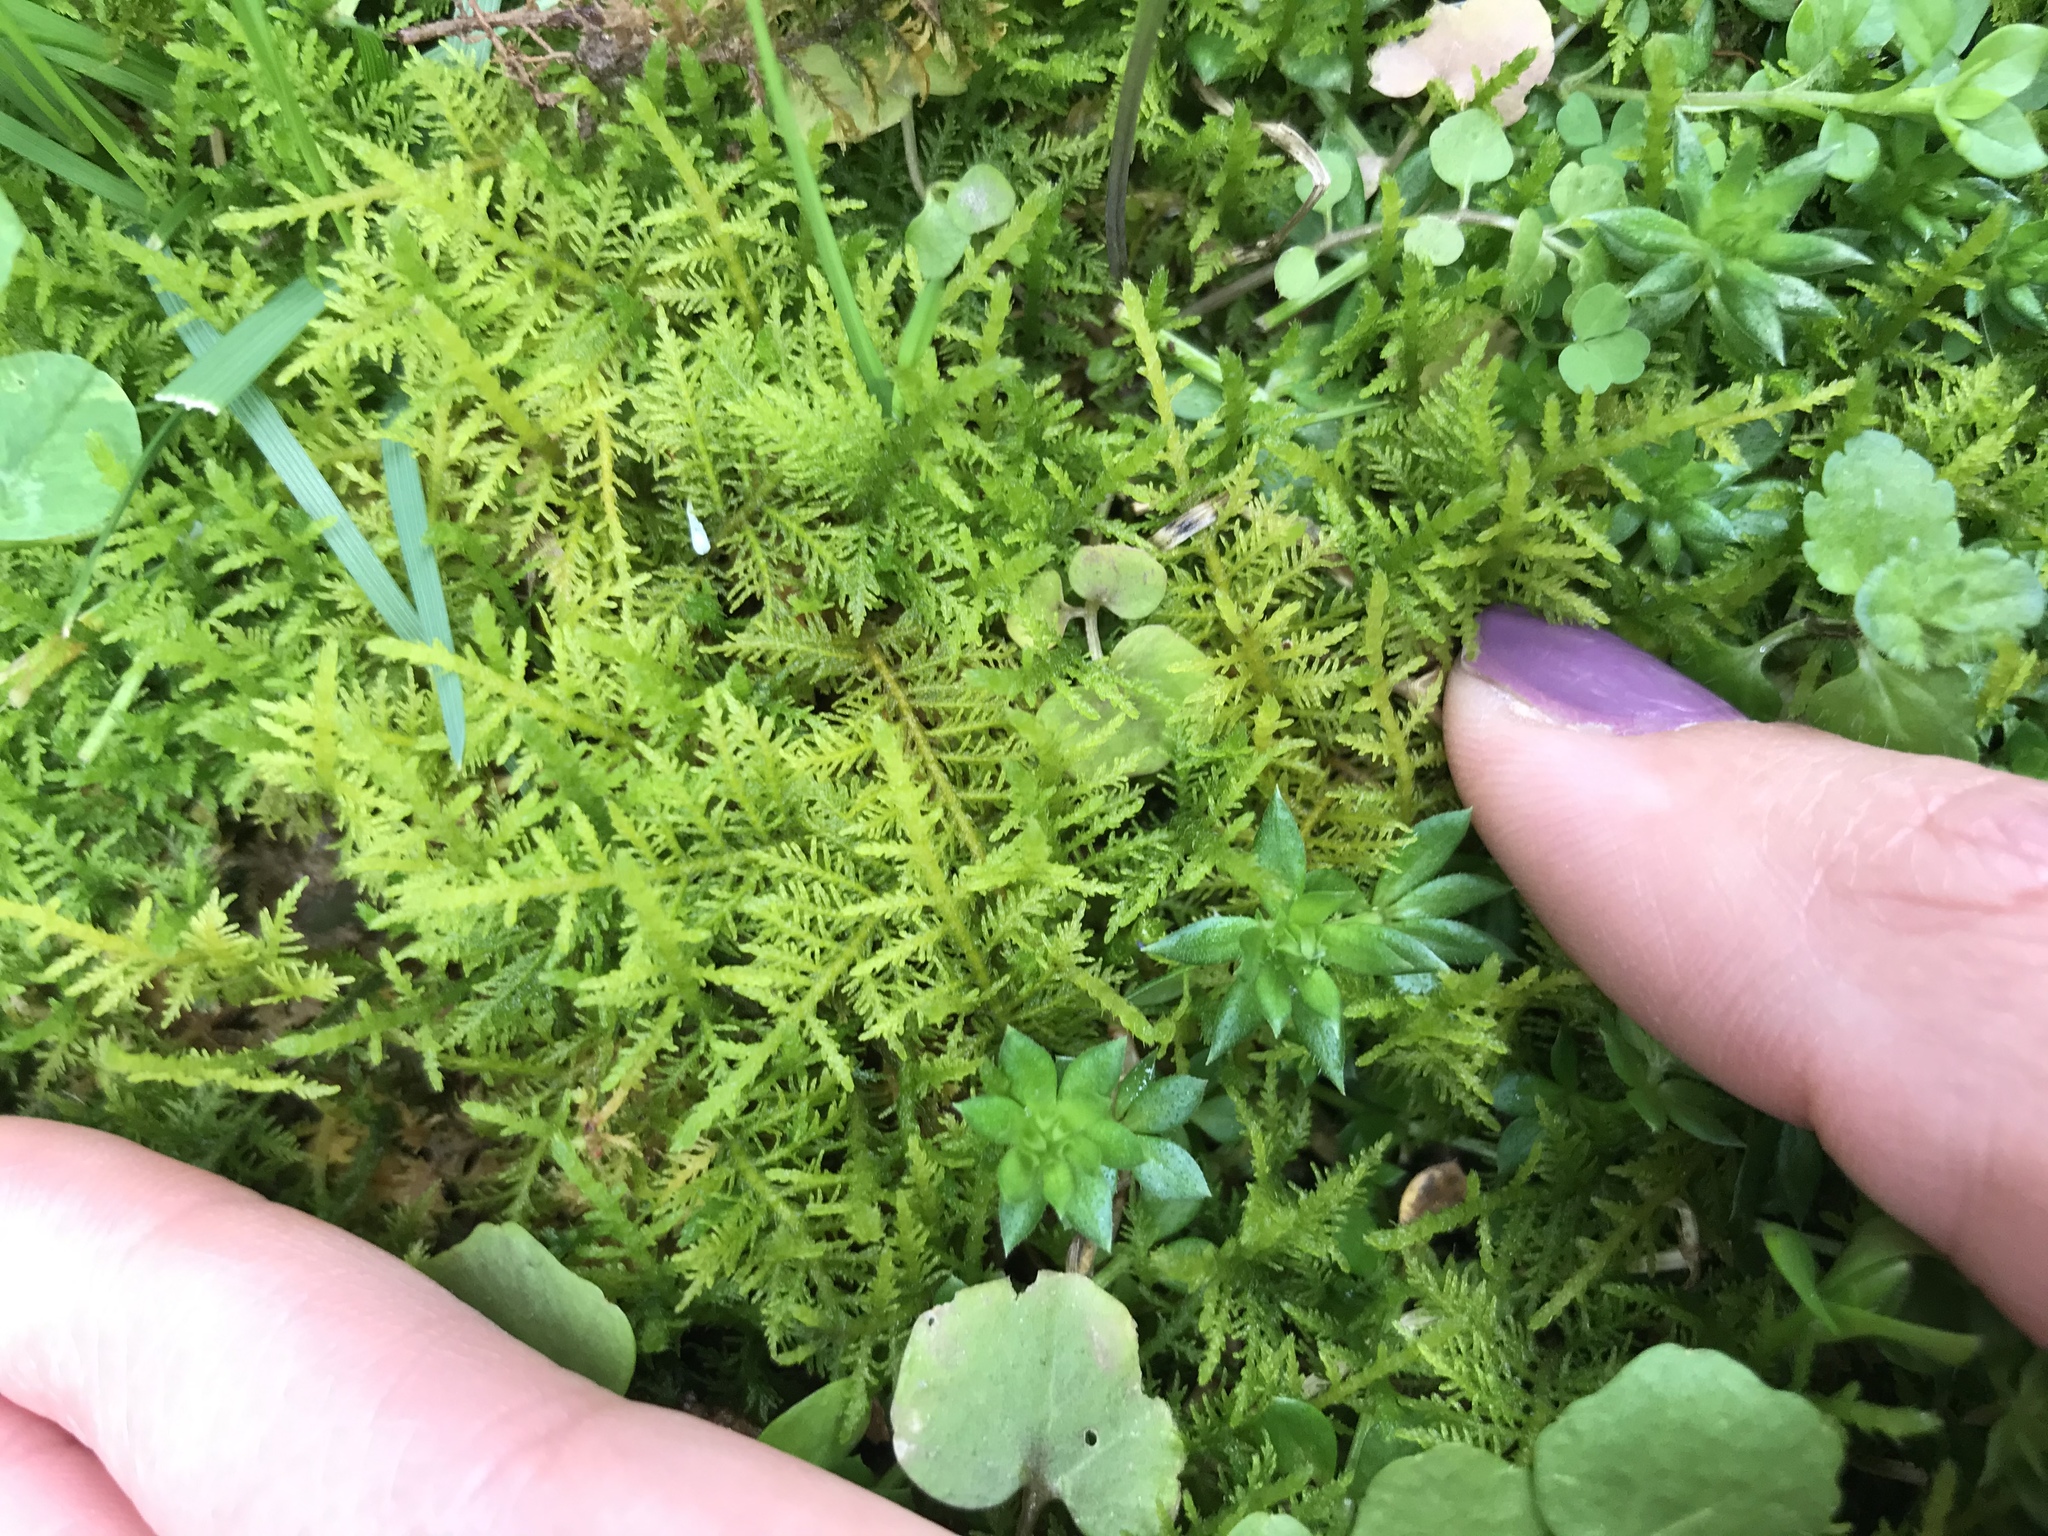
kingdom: Plantae
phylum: Bryophyta
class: Bryopsida
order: Hypnales
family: Thuidiaceae
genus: Thuidium
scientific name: Thuidium delicatulum
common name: Delicate fern moss
